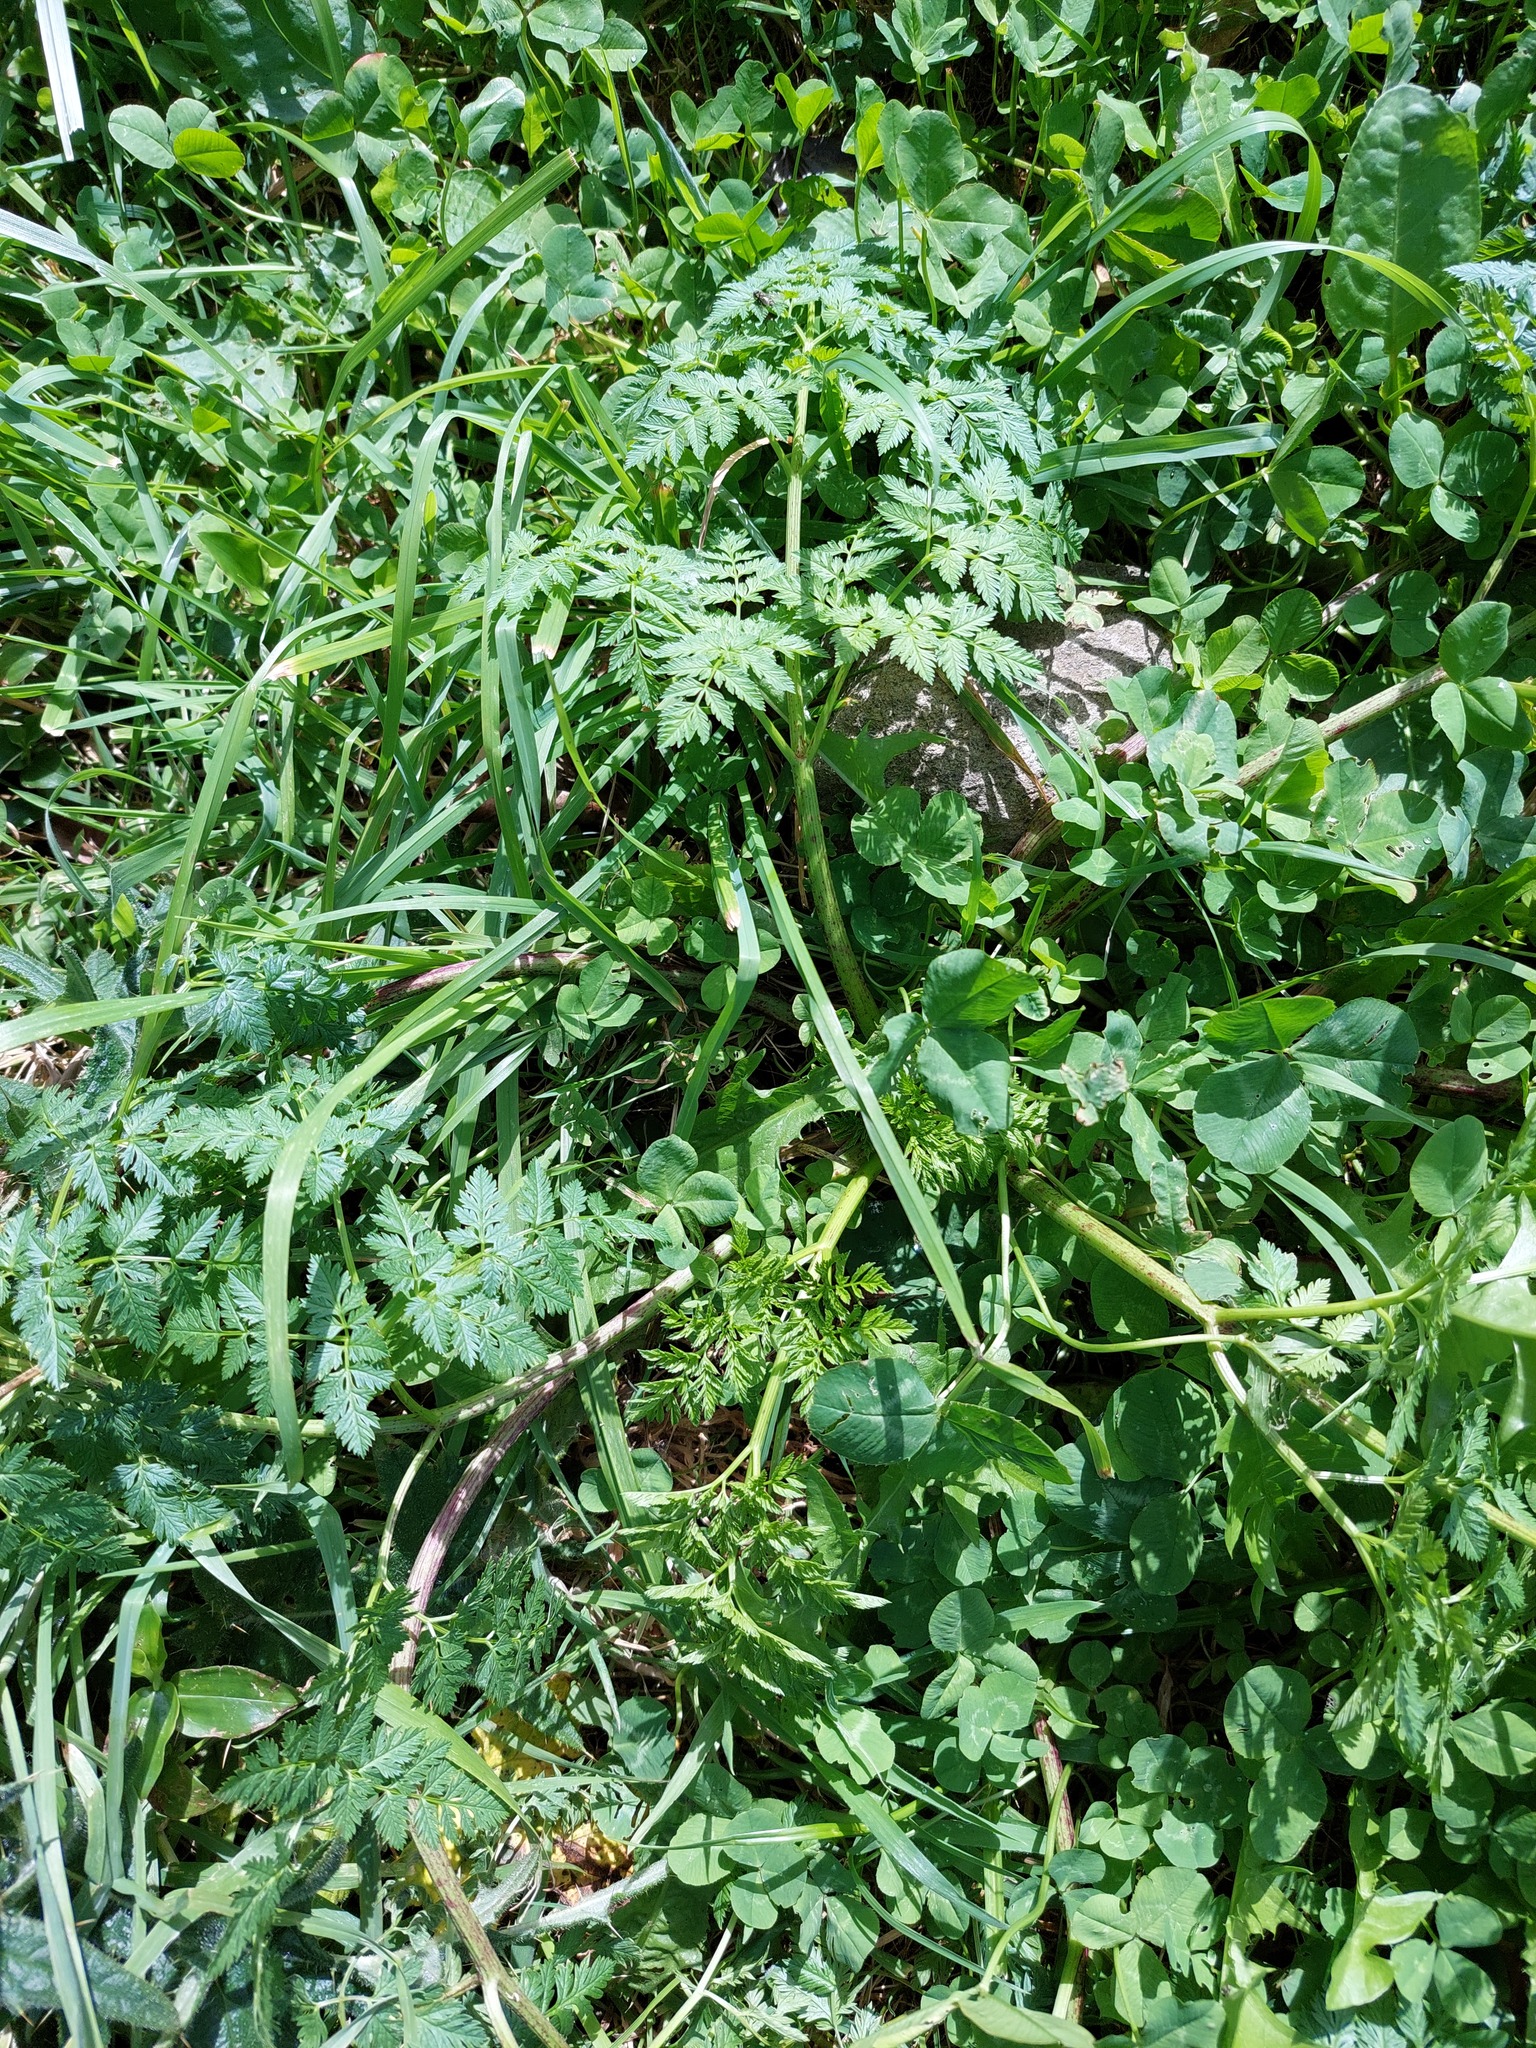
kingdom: Plantae
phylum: Tracheophyta
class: Magnoliopsida
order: Apiales
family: Apiaceae
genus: Conium
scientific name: Conium maculatum
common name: Hemlock
